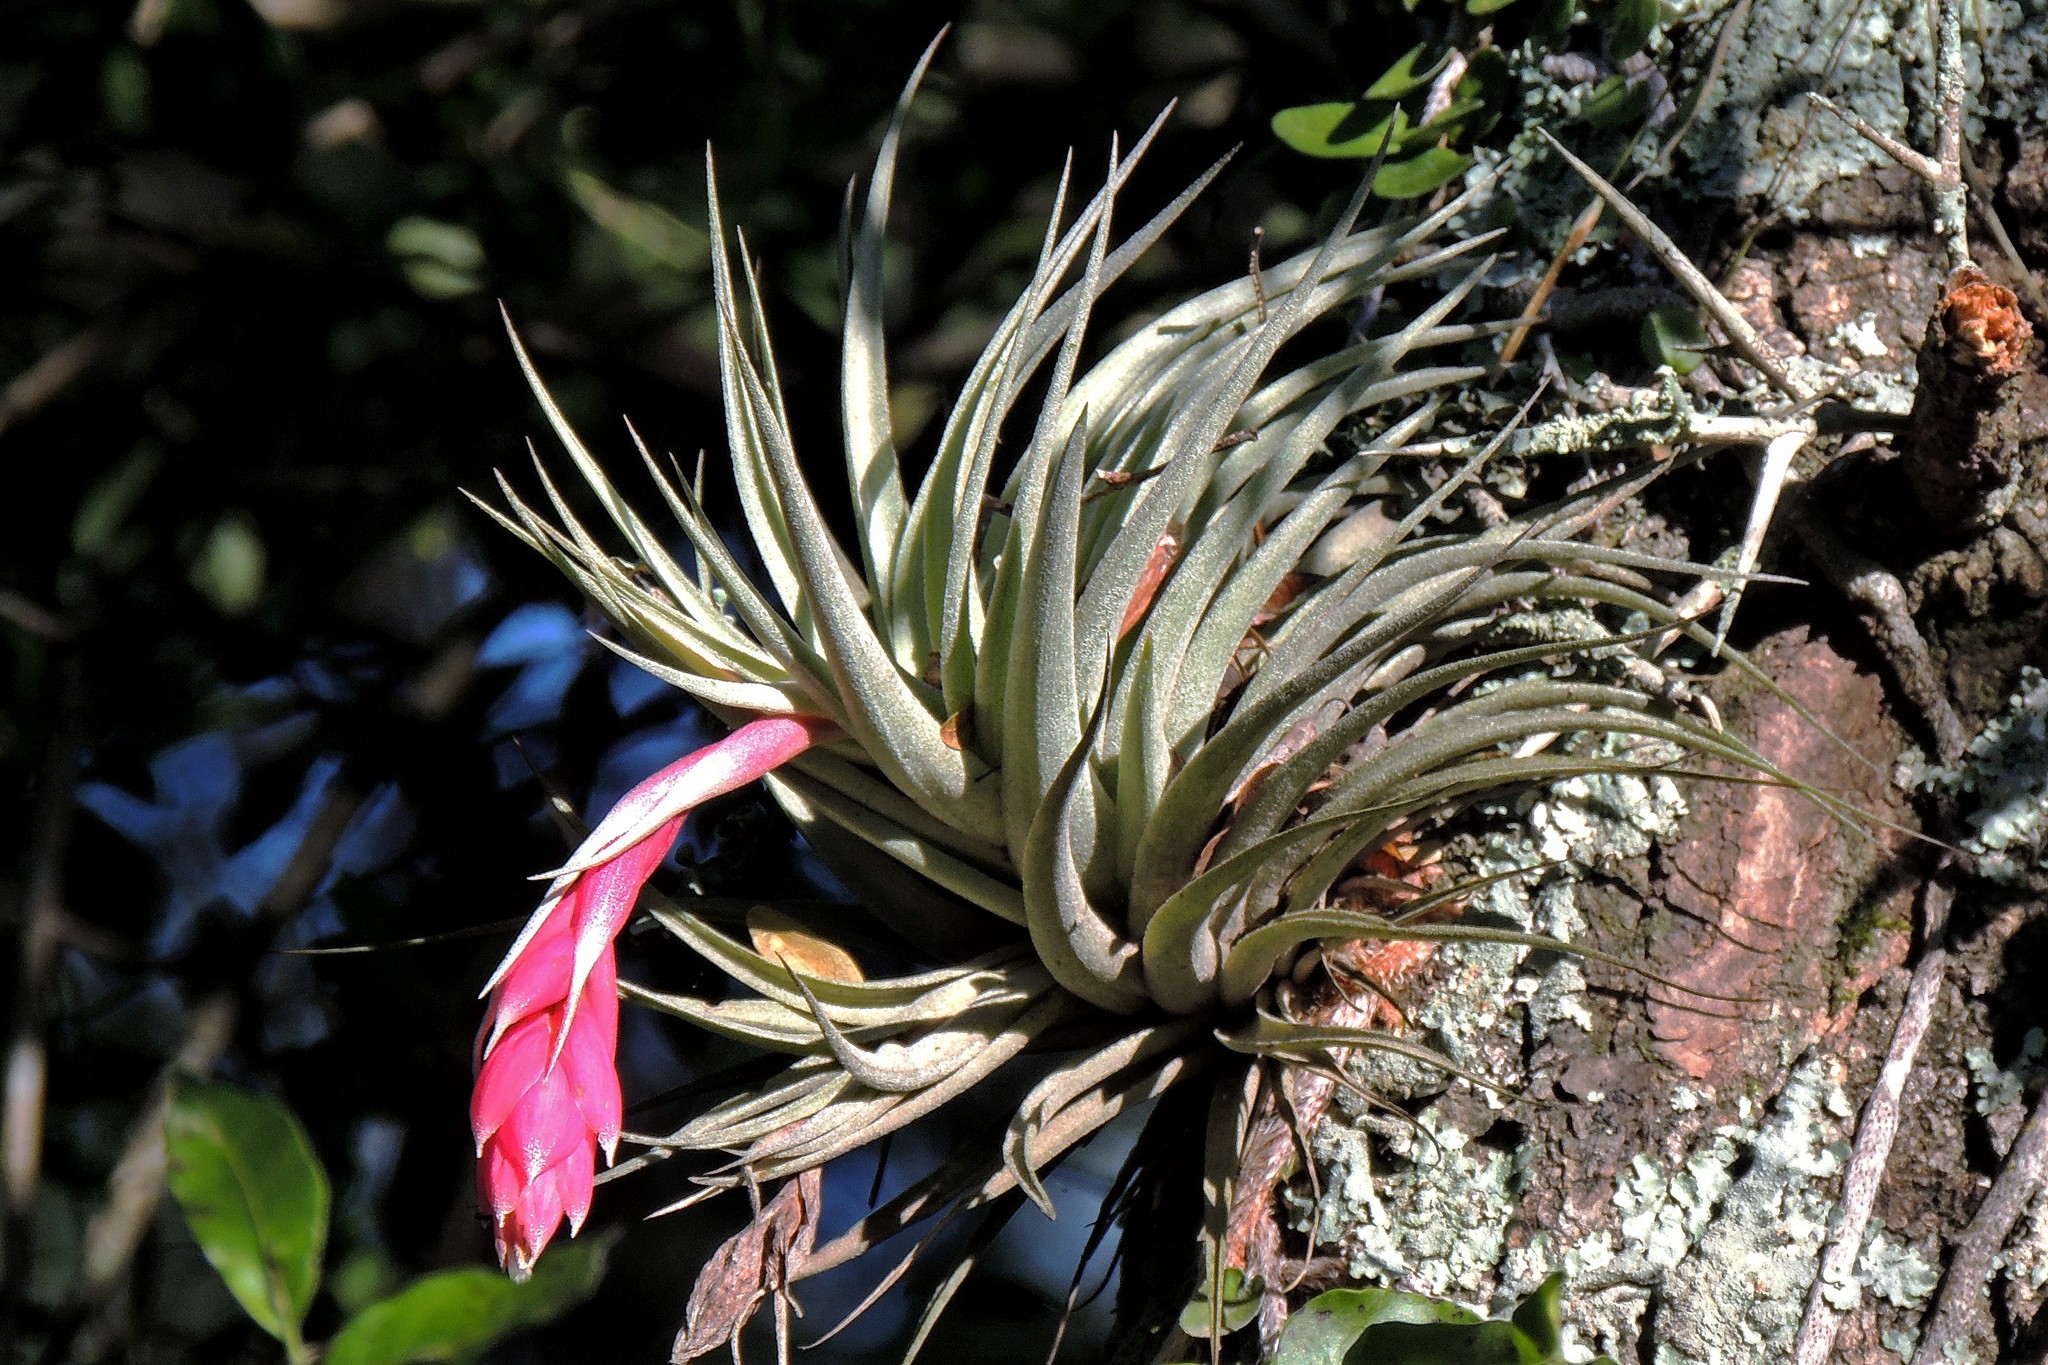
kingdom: Plantae
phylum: Tracheophyta
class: Liliopsida
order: Poales
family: Bromeliaceae
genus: Tillandsia
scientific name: Tillandsia recurvifolia
